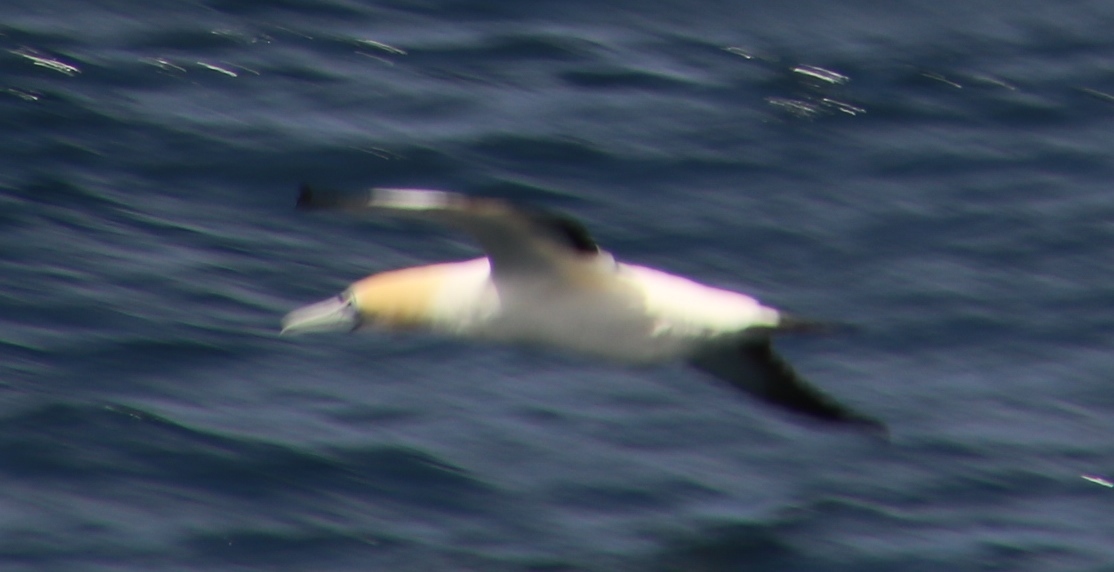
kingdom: Animalia
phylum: Chordata
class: Aves
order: Suliformes
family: Sulidae
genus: Morus
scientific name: Morus capensis
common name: Cape gannet
